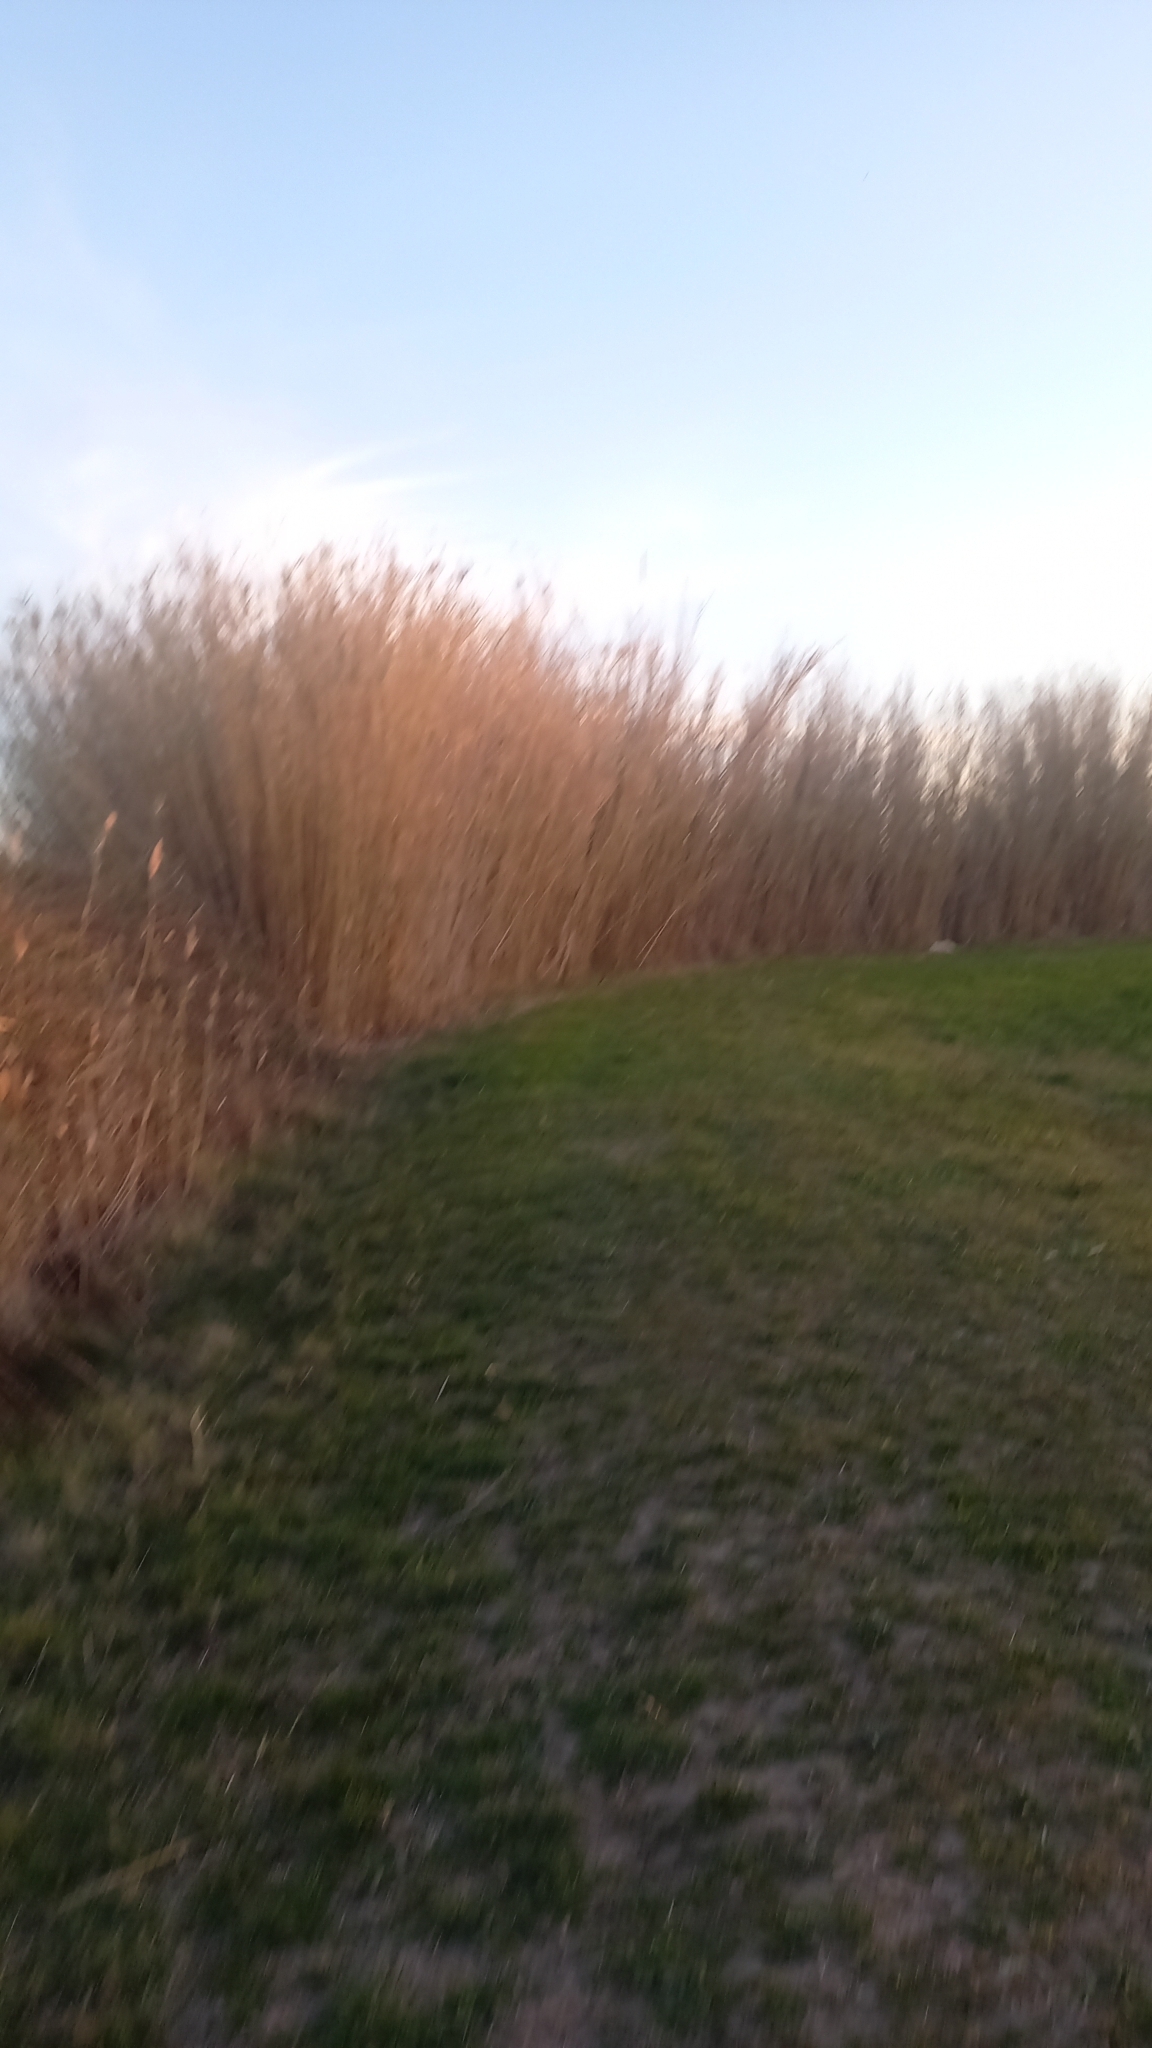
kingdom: Plantae
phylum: Tracheophyta
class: Liliopsida
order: Poales
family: Poaceae
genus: Arundo
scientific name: Arundo donax
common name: Giant reed
